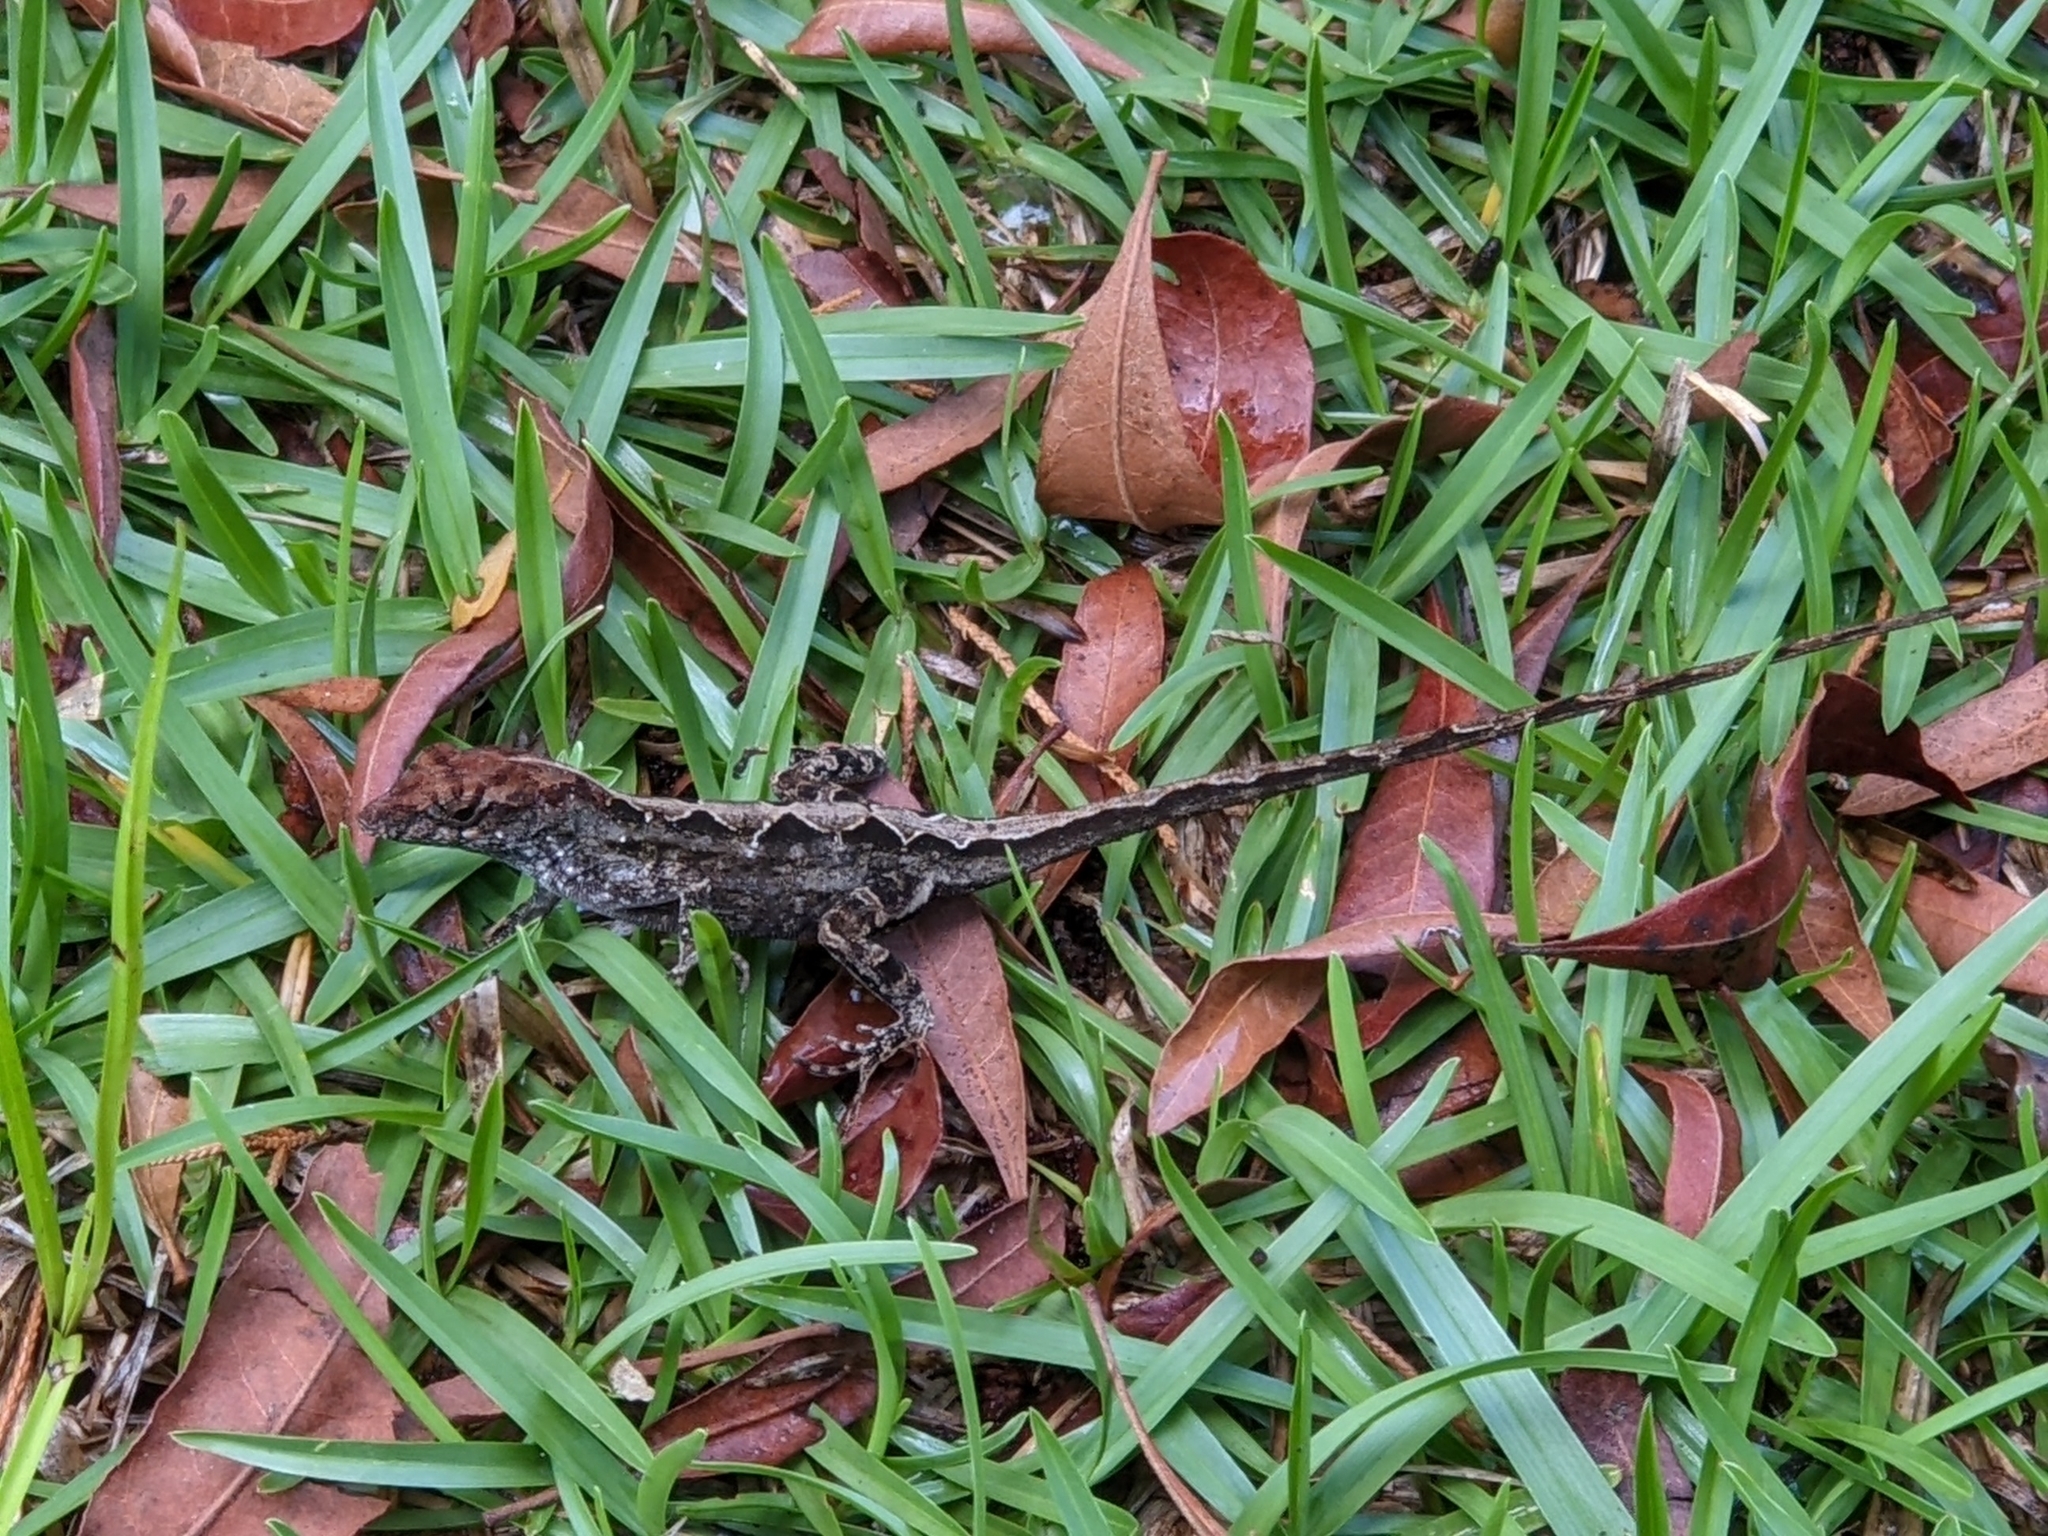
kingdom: Animalia
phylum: Chordata
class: Squamata
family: Dactyloidae
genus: Anolis
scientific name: Anolis sagrei
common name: Brown anole
